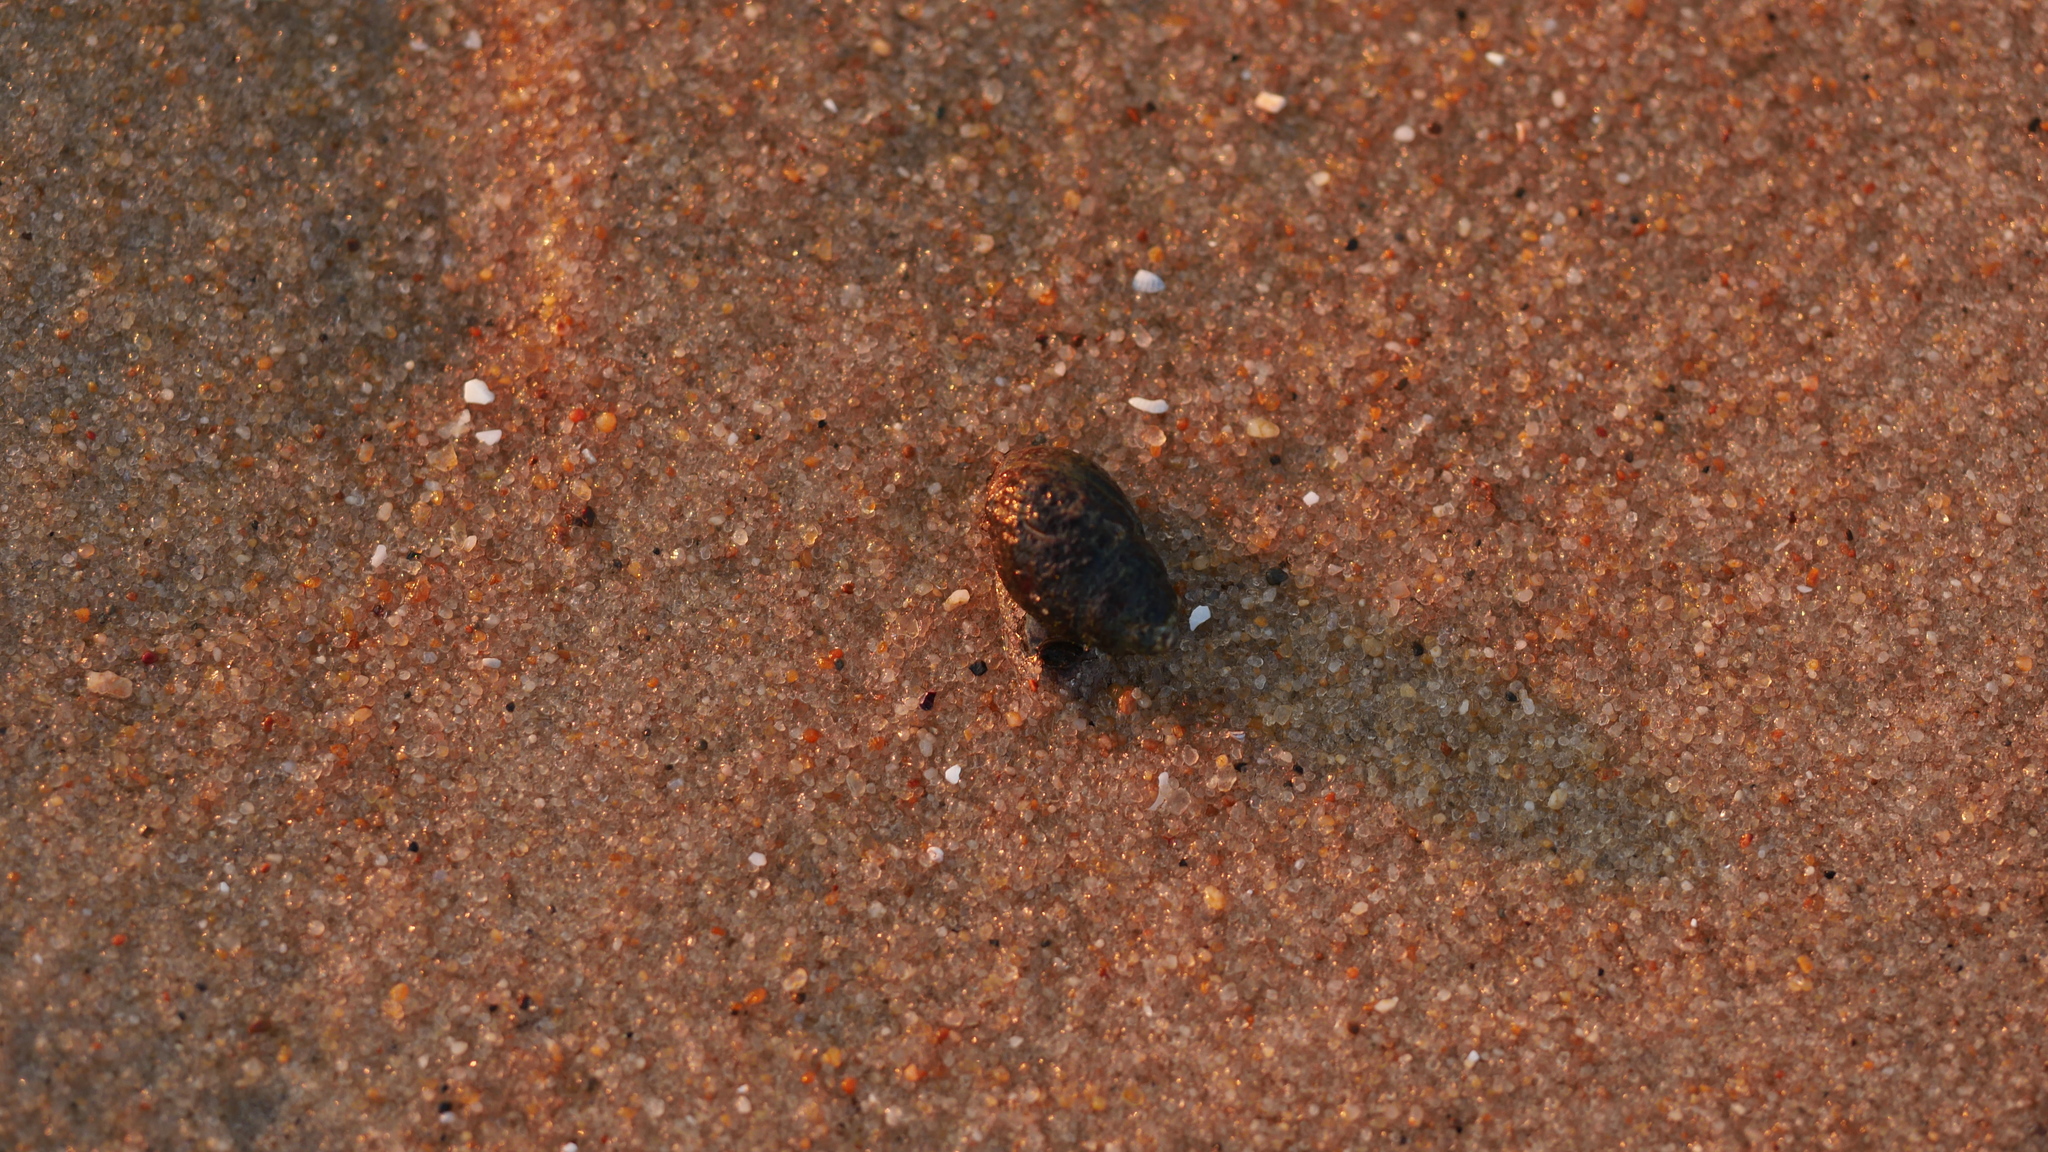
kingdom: Animalia
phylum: Mollusca
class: Gastropoda
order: Neogastropoda
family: Nassariidae
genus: Ilyanassa
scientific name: Ilyanassa obsoleta
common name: Eastern mudsnail
